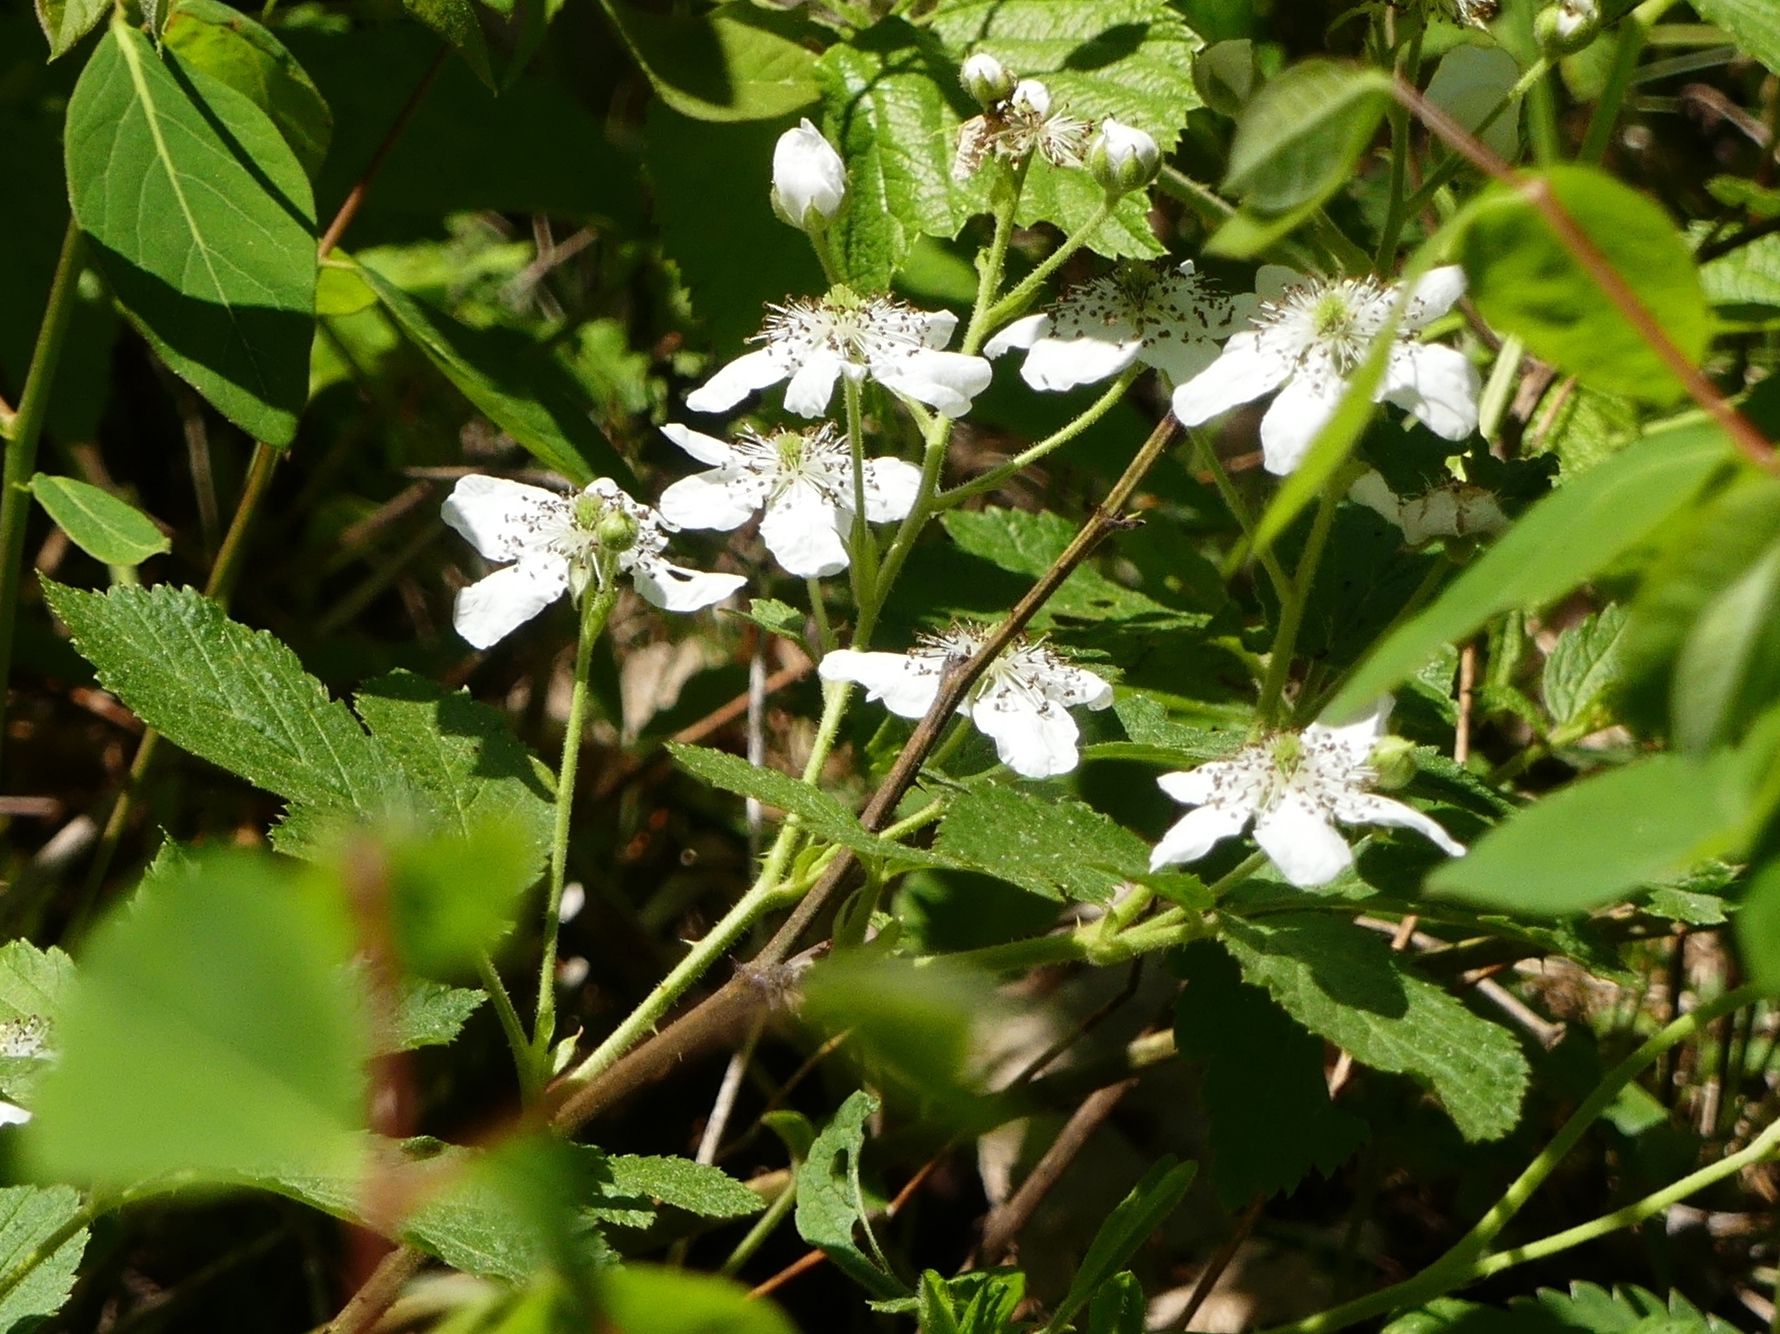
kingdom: Plantae
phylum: Tracheophyta
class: Magnoliopsida
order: Rosales
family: Rosaceae
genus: Rubus
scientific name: Rubus allegheniensis
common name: Allegheny blackberry
